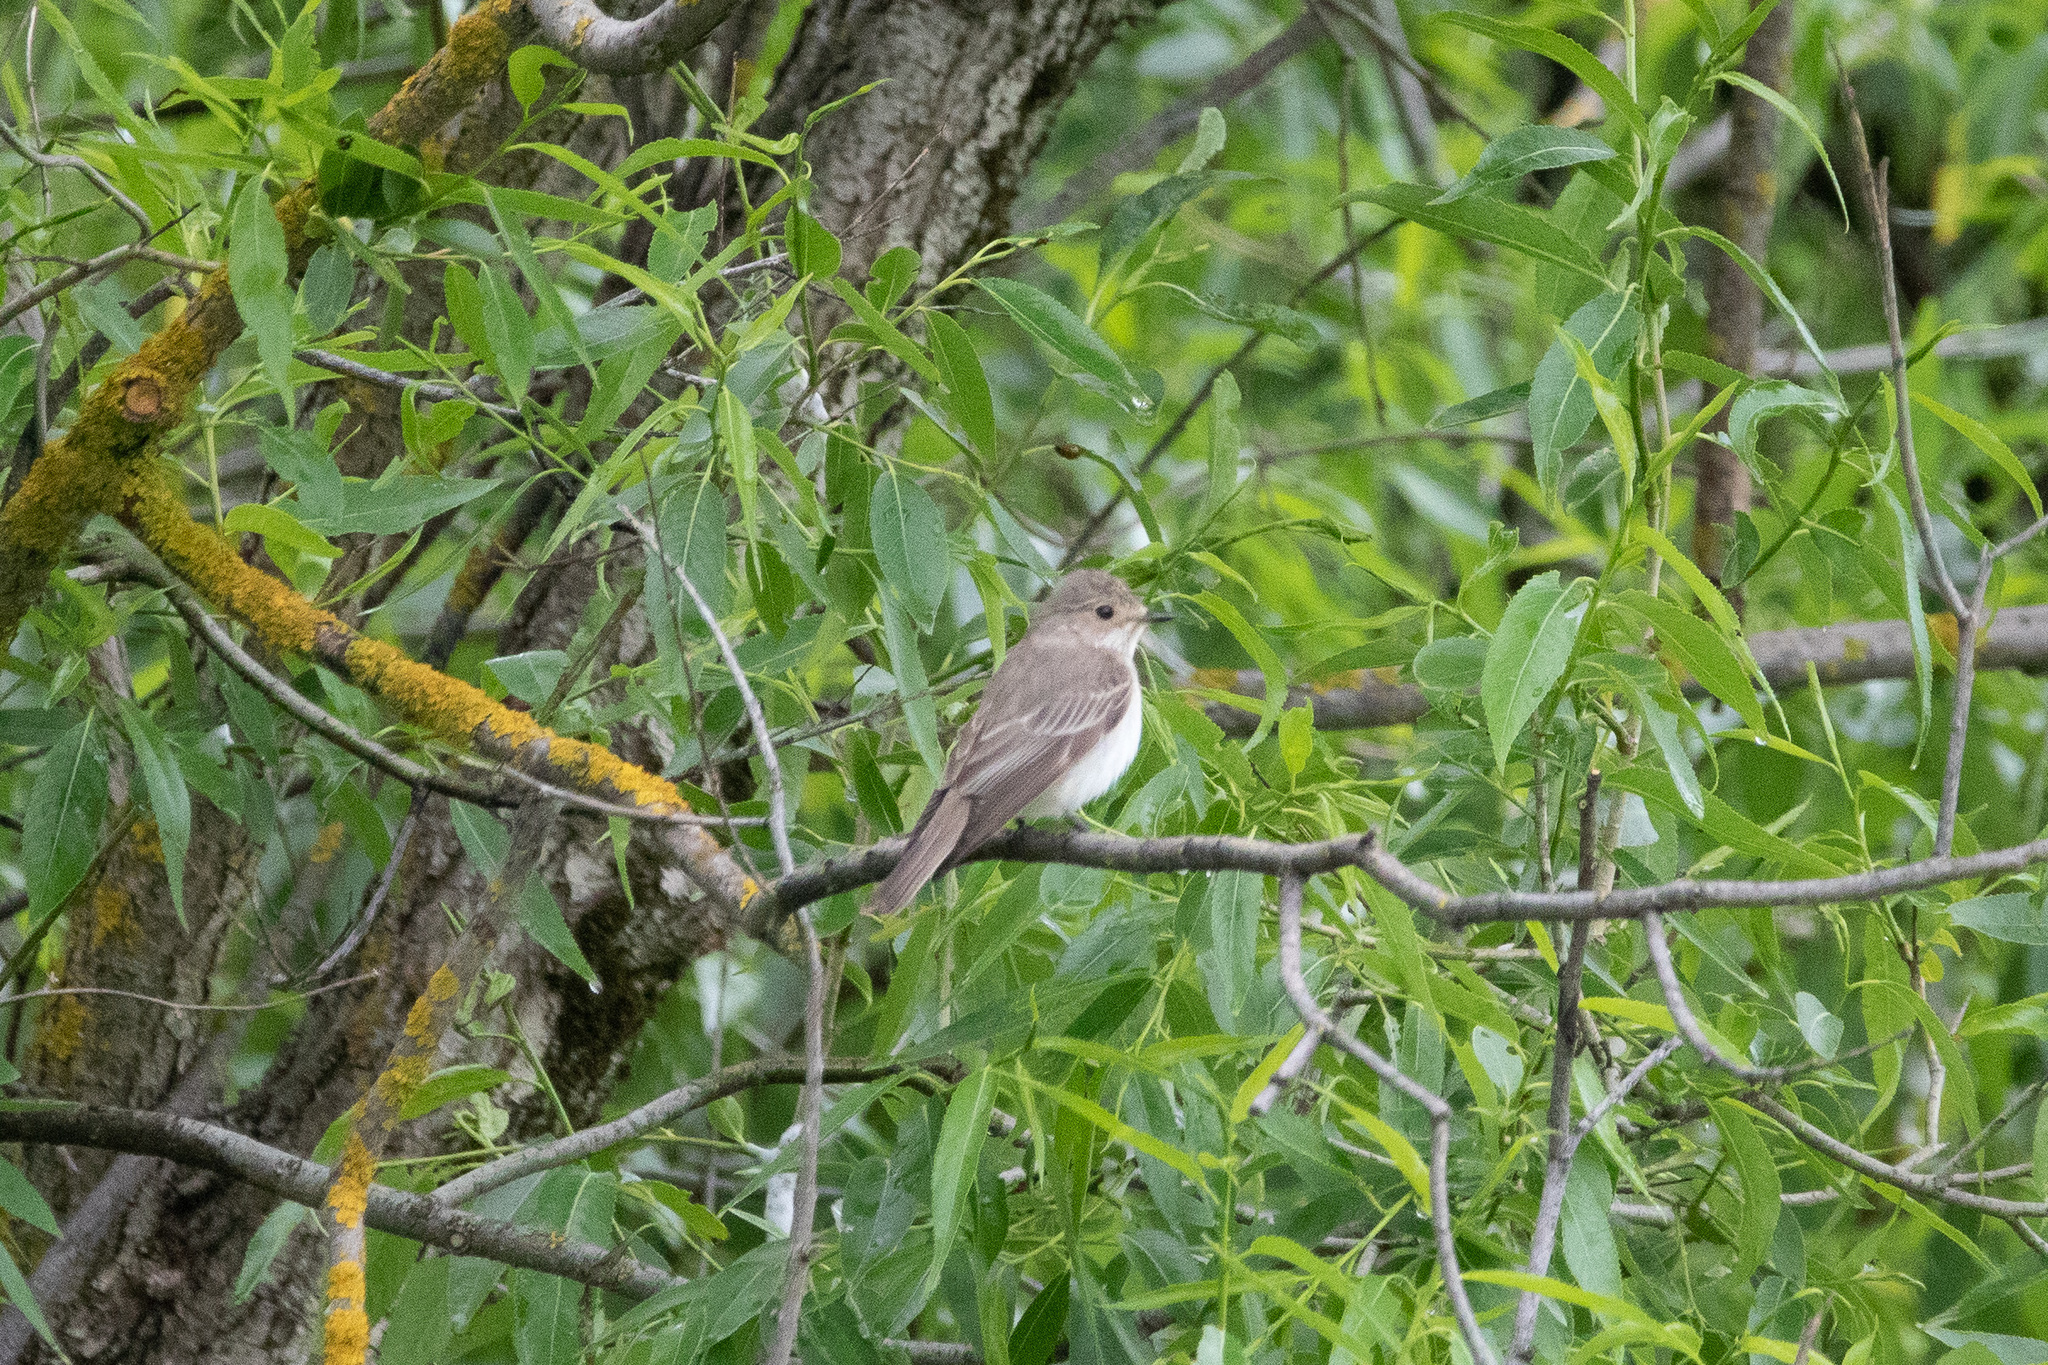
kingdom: Animalia
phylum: Chordata
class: Aves
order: Passeriformes
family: Muscicapidae
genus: Muscicapa
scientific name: Muscicapa striata
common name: Spotted flycatcher
